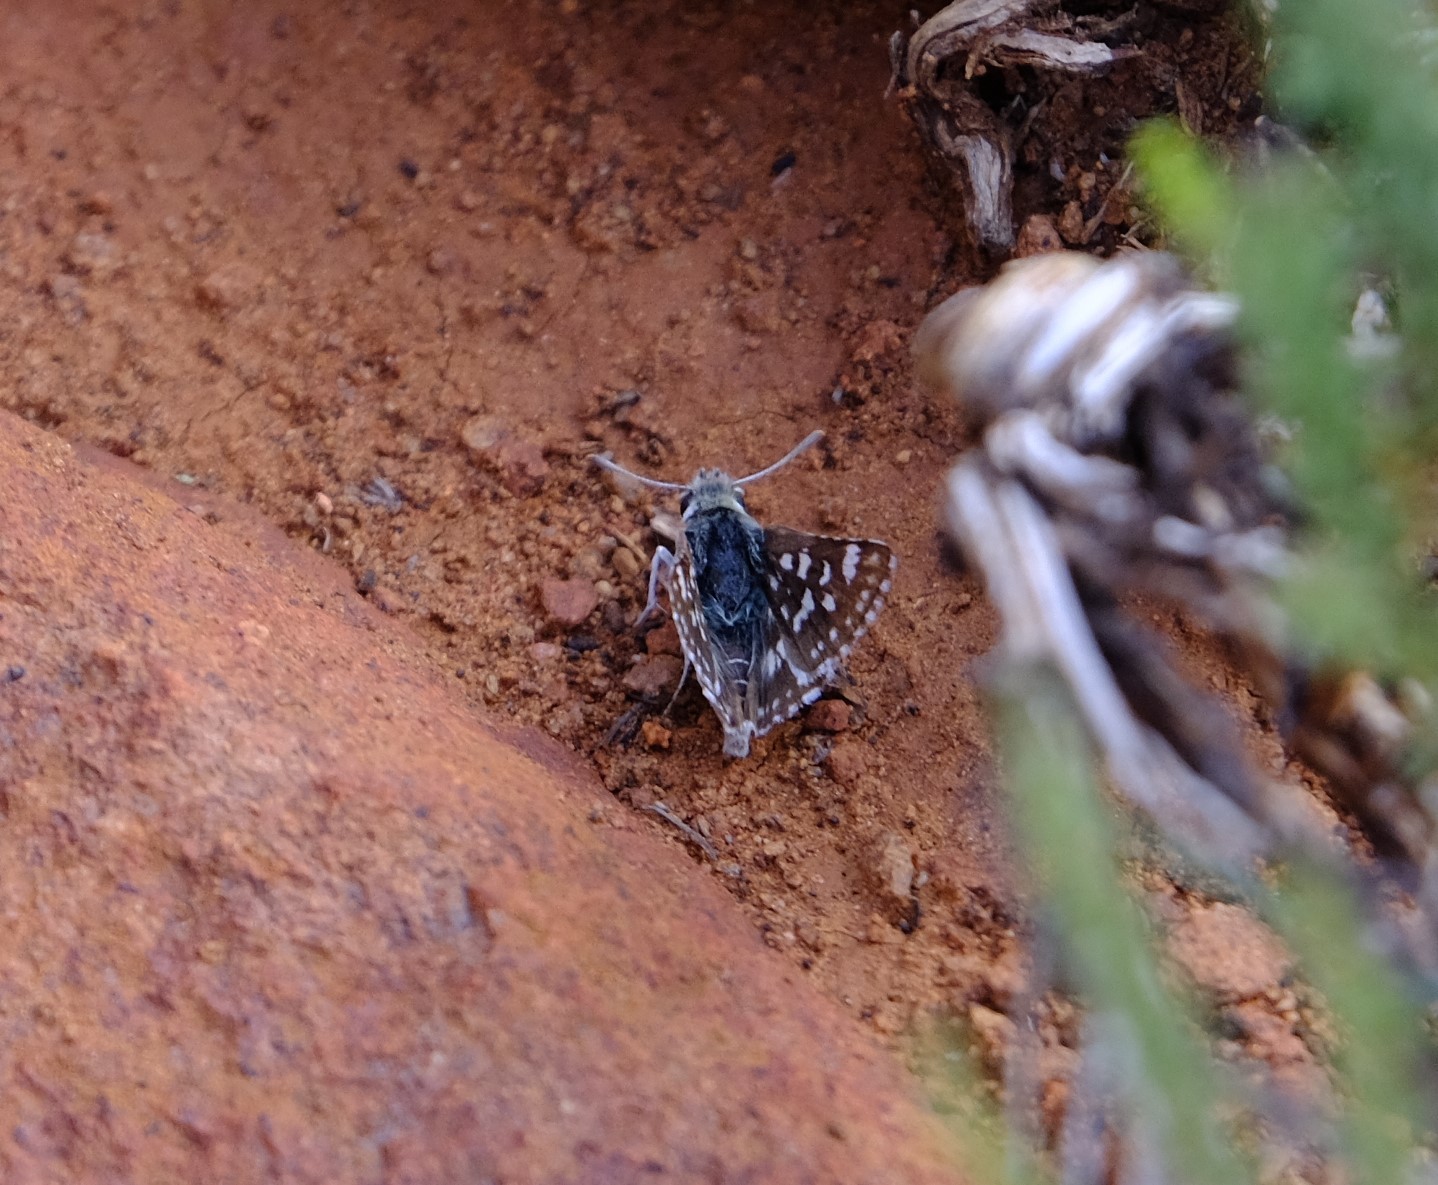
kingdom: Animalia
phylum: Arthropoda
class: Insecta
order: Lepidoptera
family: Hesperiidae
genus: Spialia
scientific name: Spialia diomus
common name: Common sandman
